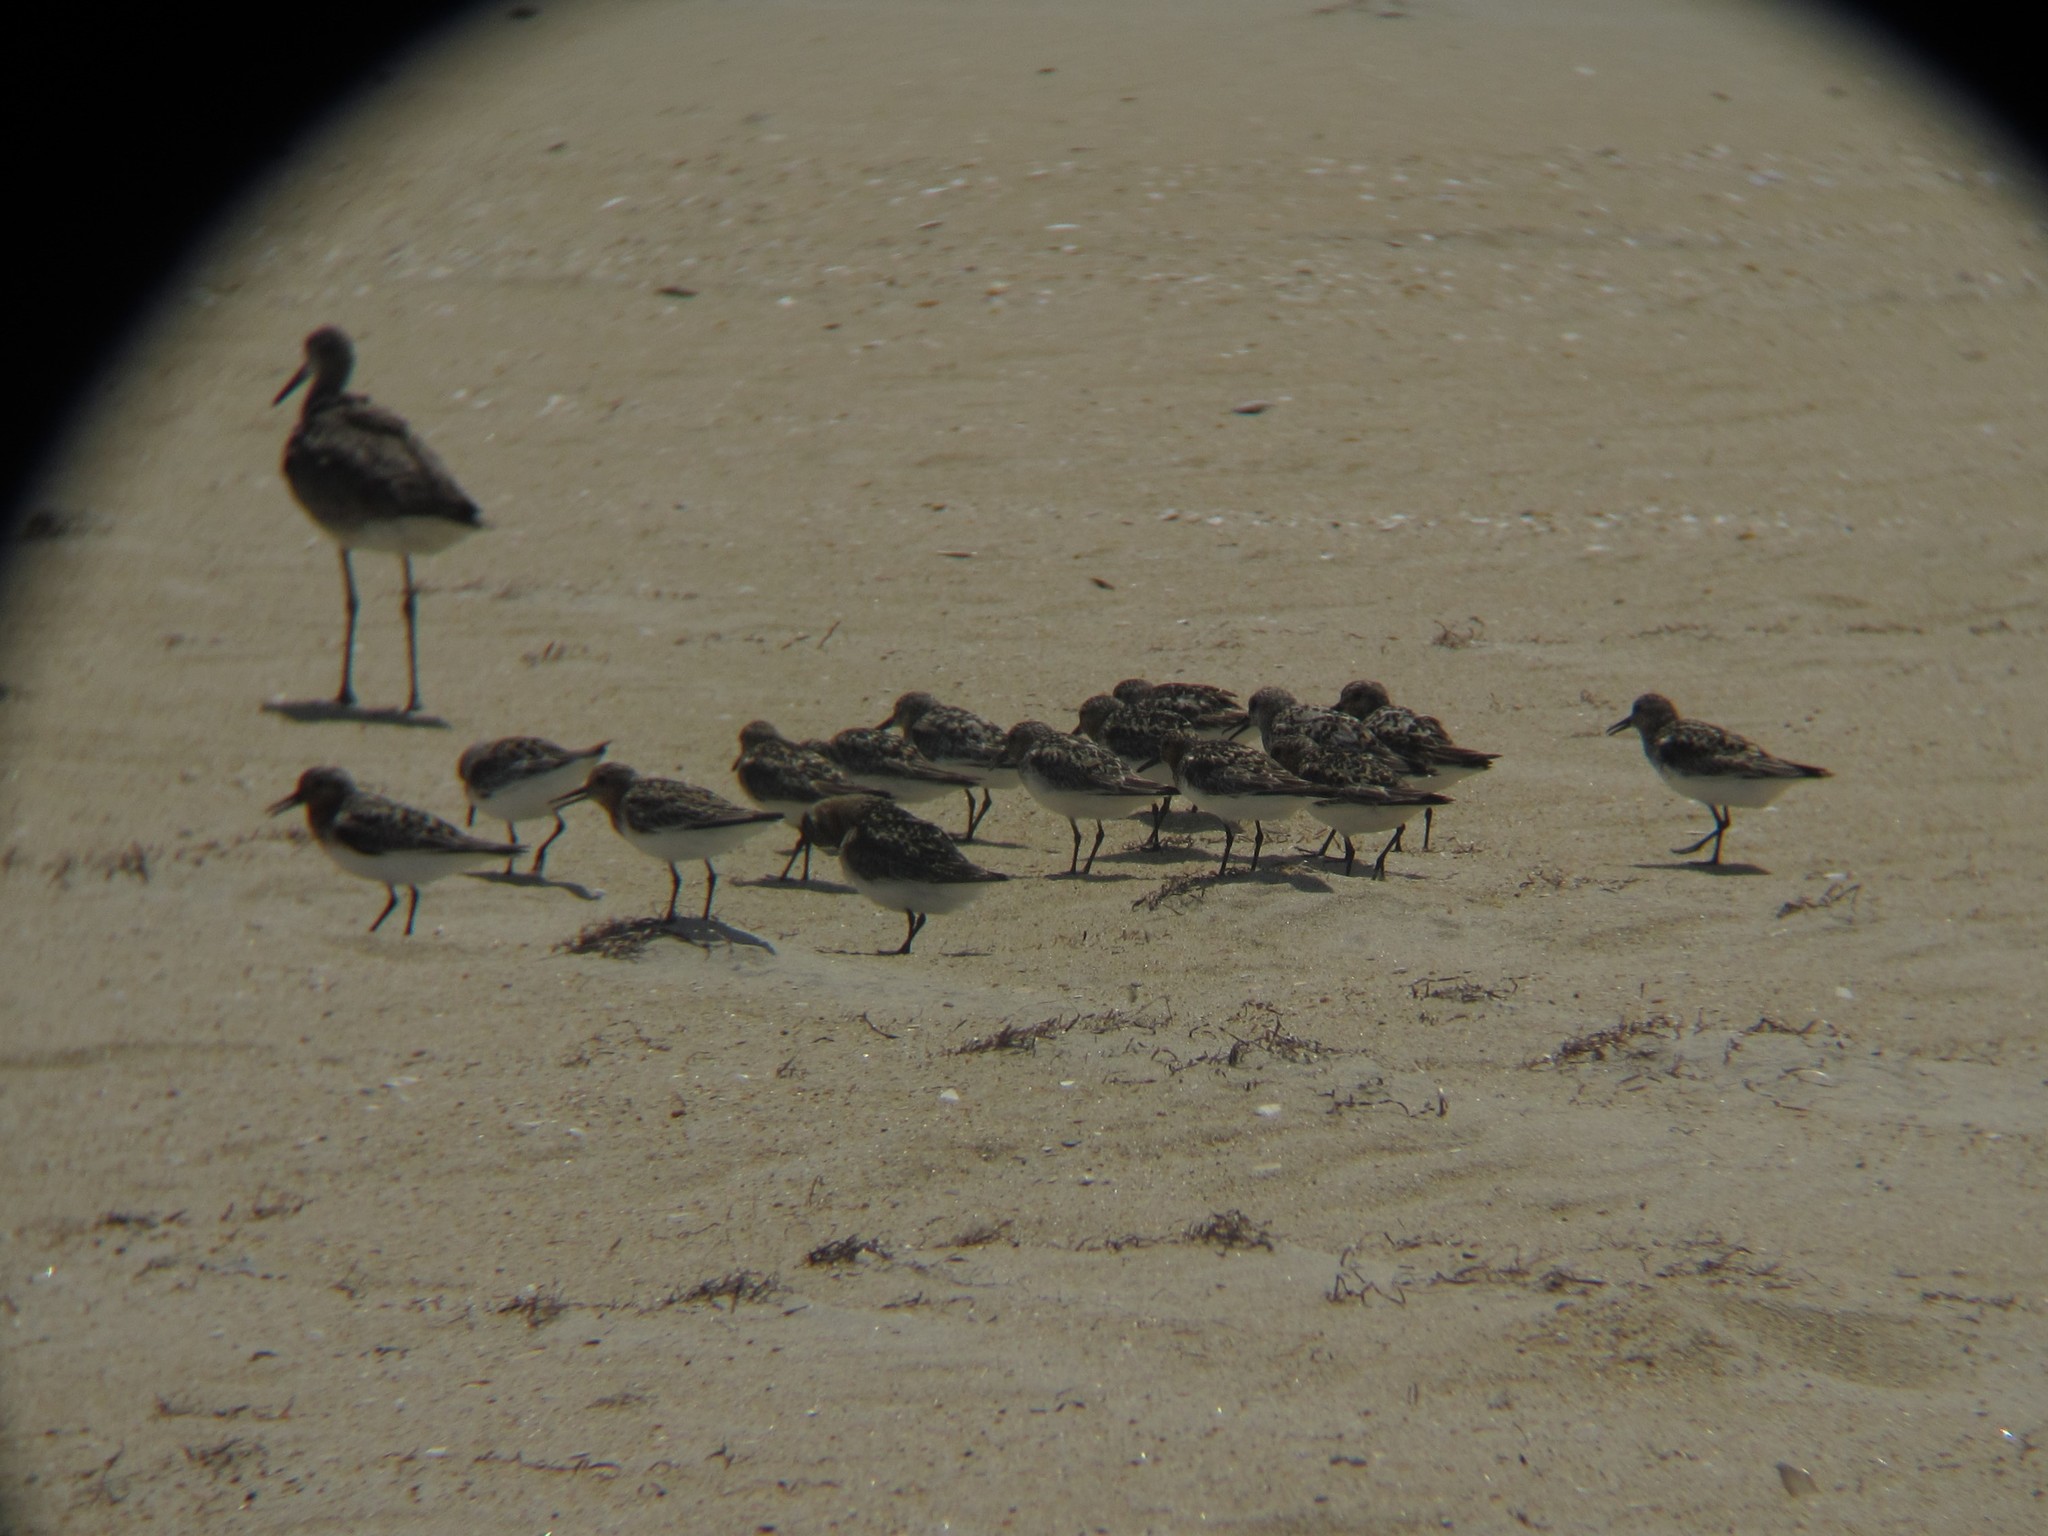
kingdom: Animalia
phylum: Chordata
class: Aves
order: Charadriiformes
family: Scolopacidae
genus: Calidris
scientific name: Calidris alba
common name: Sanderling
